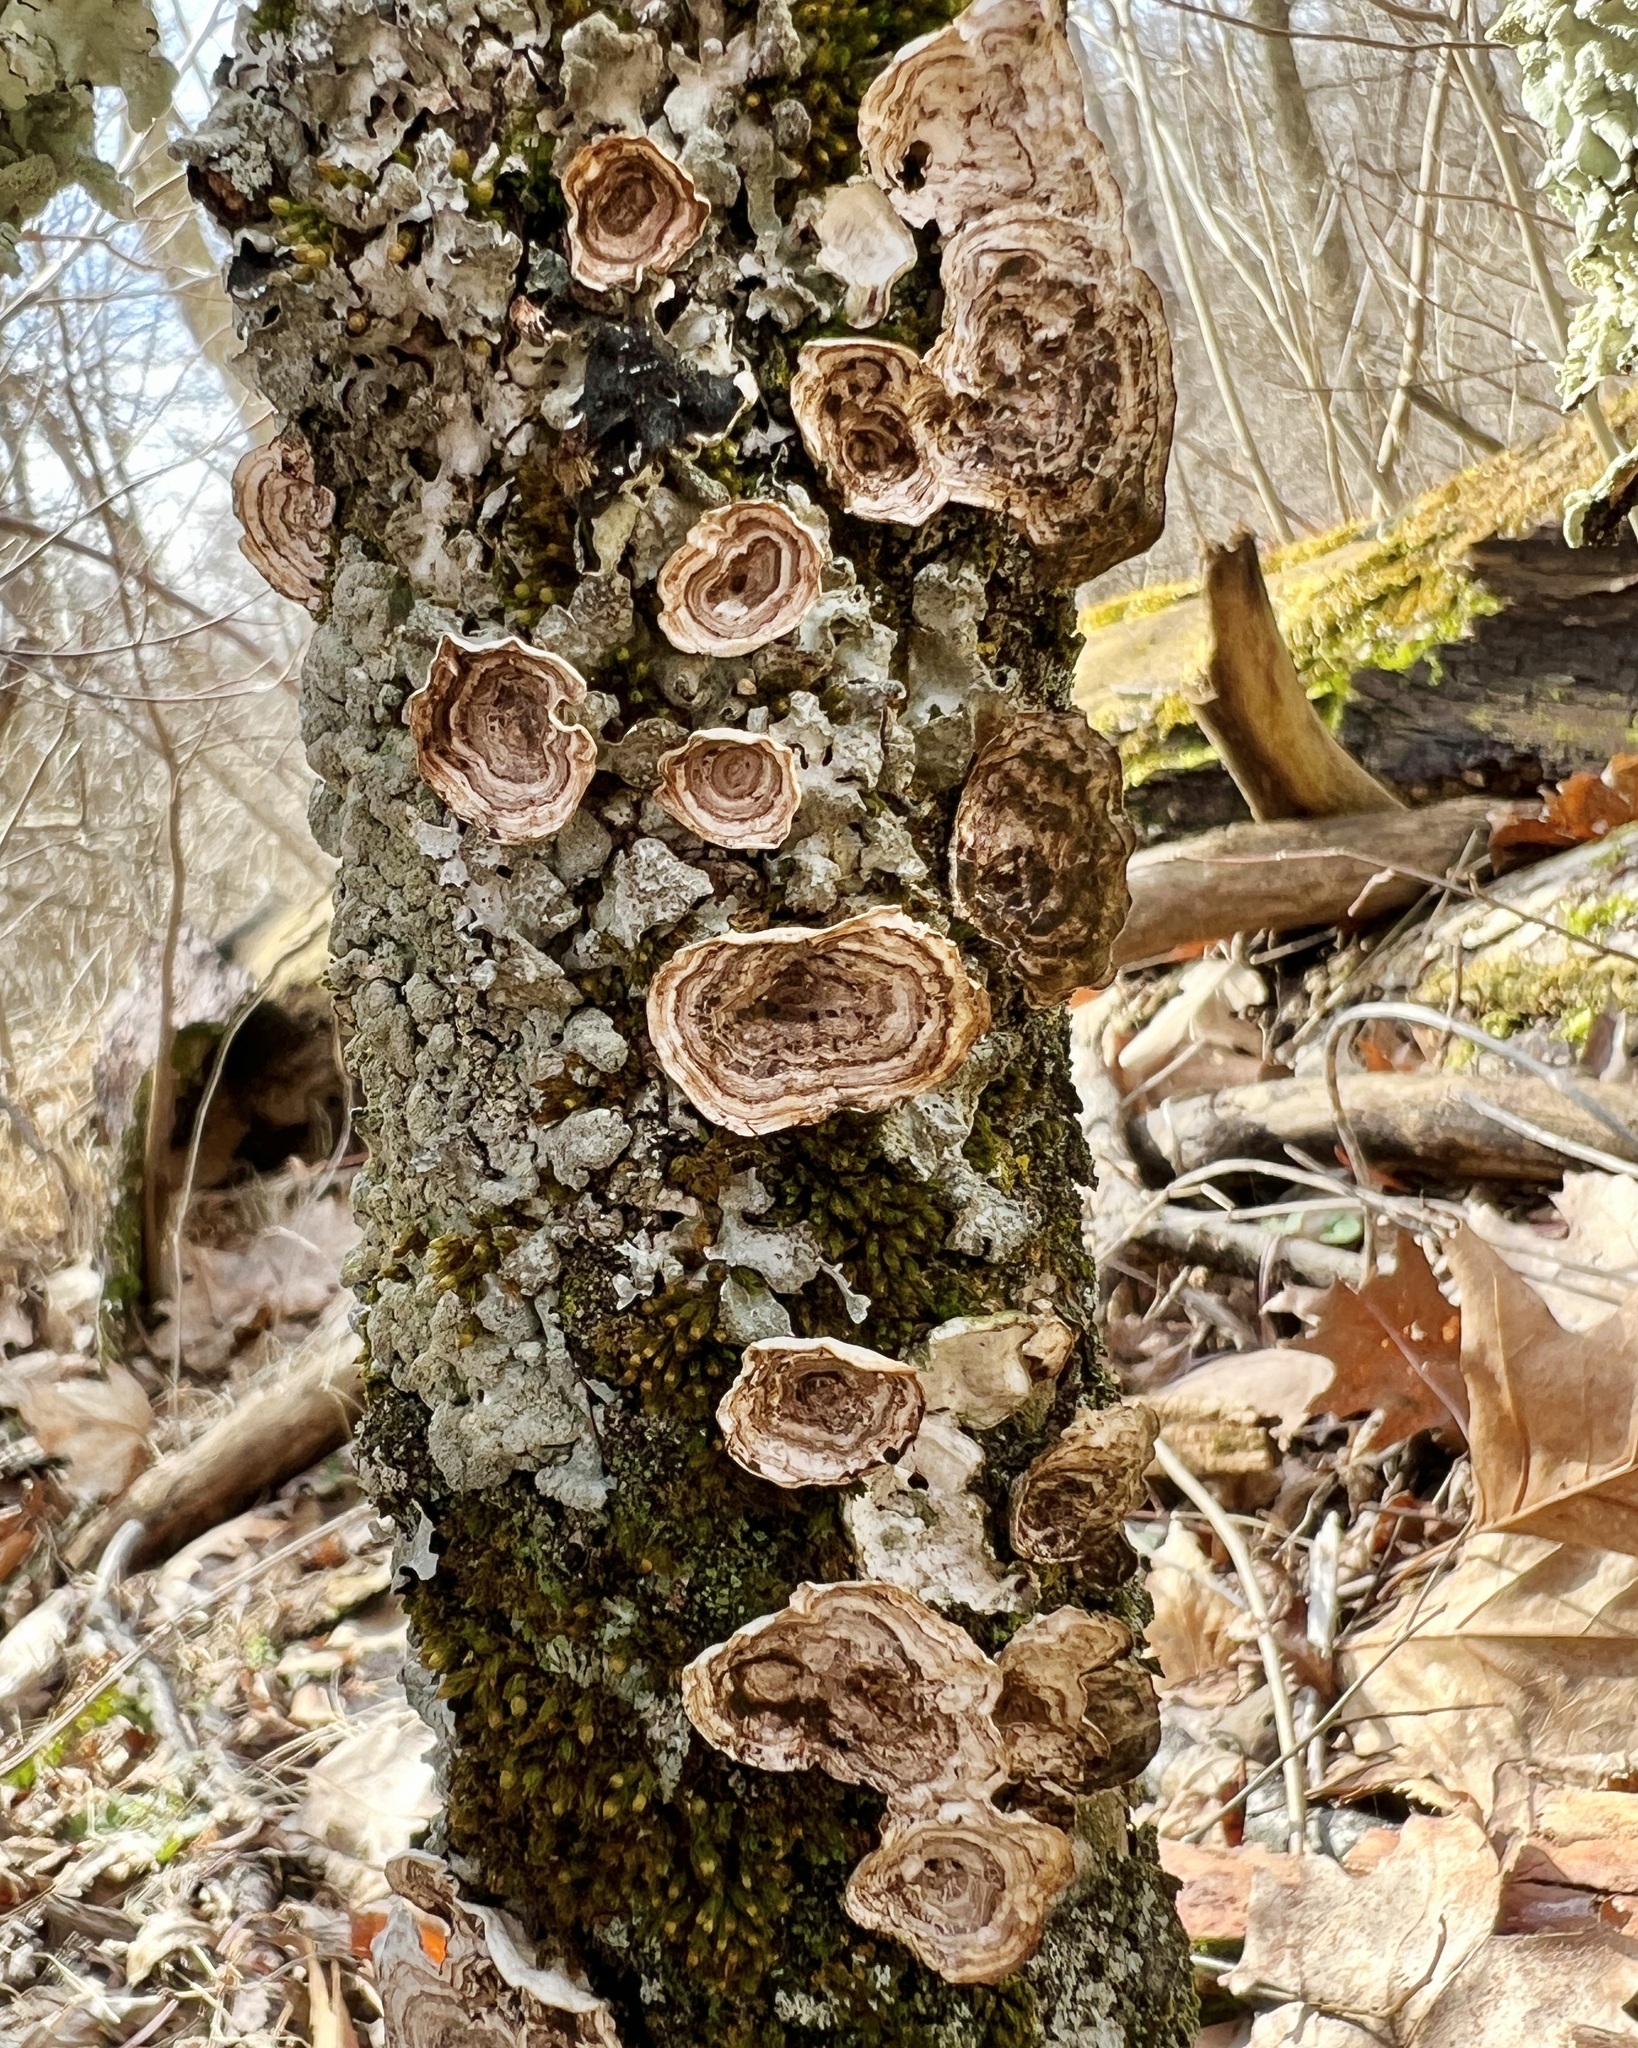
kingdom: Fungi
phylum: Basidiomycota
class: Agaricomycetes
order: Polyporales
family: Polyporaceae
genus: Poronidulus
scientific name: Poronidulus conchifer
